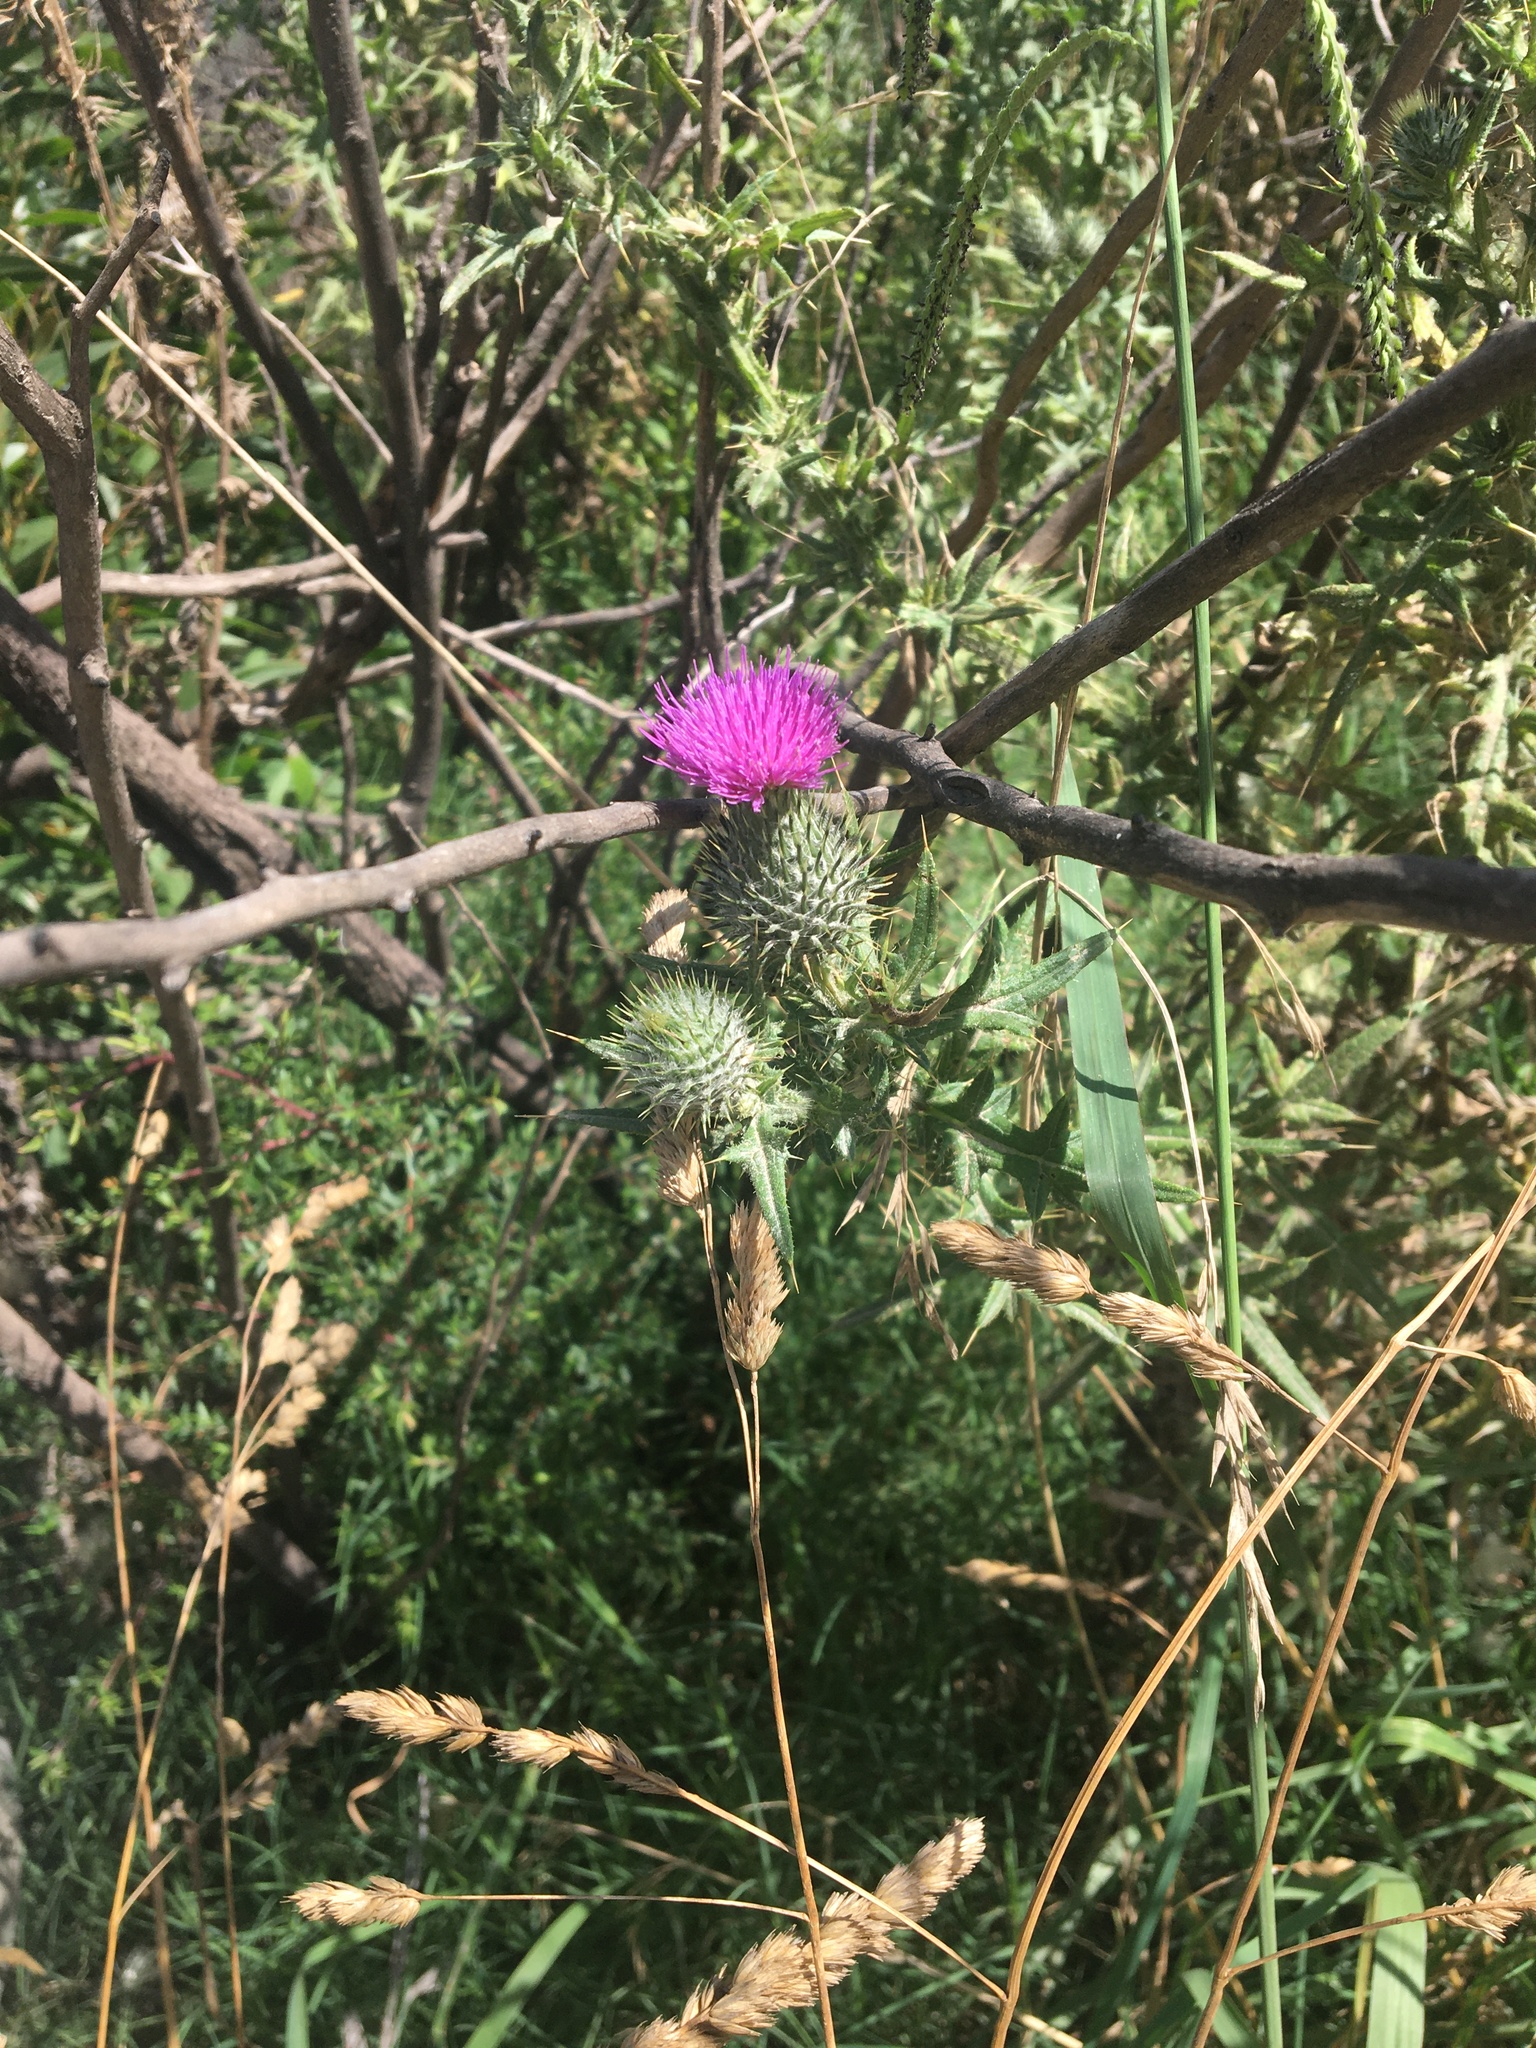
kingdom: Plantae
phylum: Tracheophyta
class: Magnoliopsida
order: Asterales
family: Asteraceae
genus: Cirsium
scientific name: Cirsium vulgare
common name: Bull thistle
